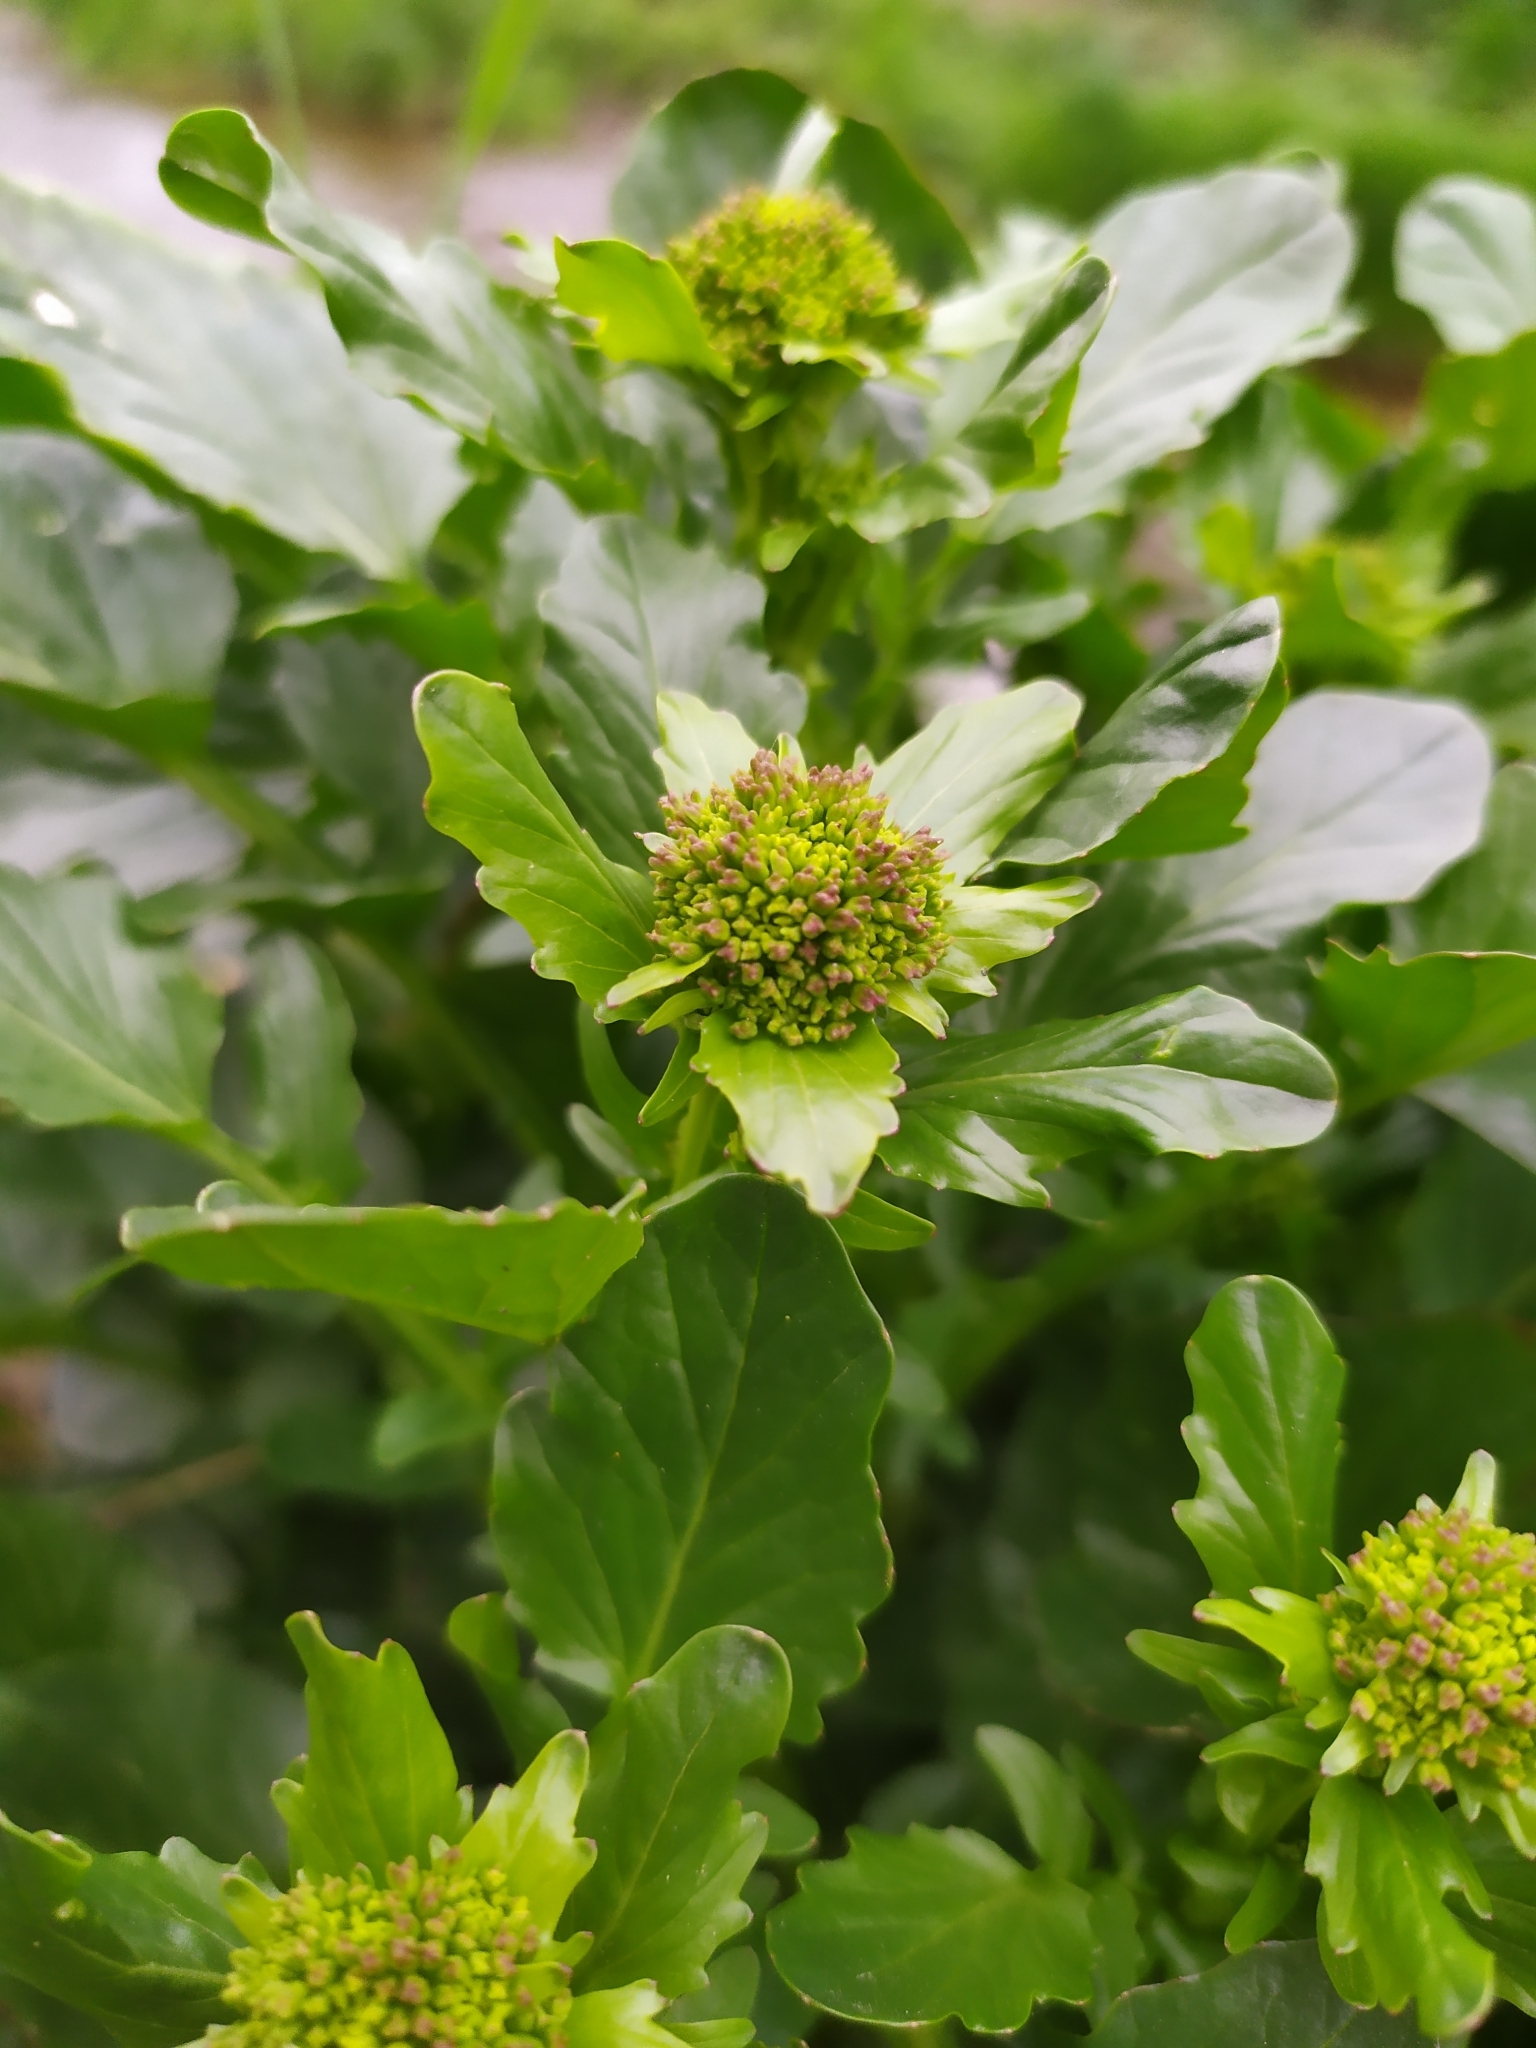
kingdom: Plantae
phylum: Tracheophyta
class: Magnoliopsida
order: Brassicales
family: Brassicaceae
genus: Barbarea
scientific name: Barbarea vulgaris
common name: Cressy-greens
